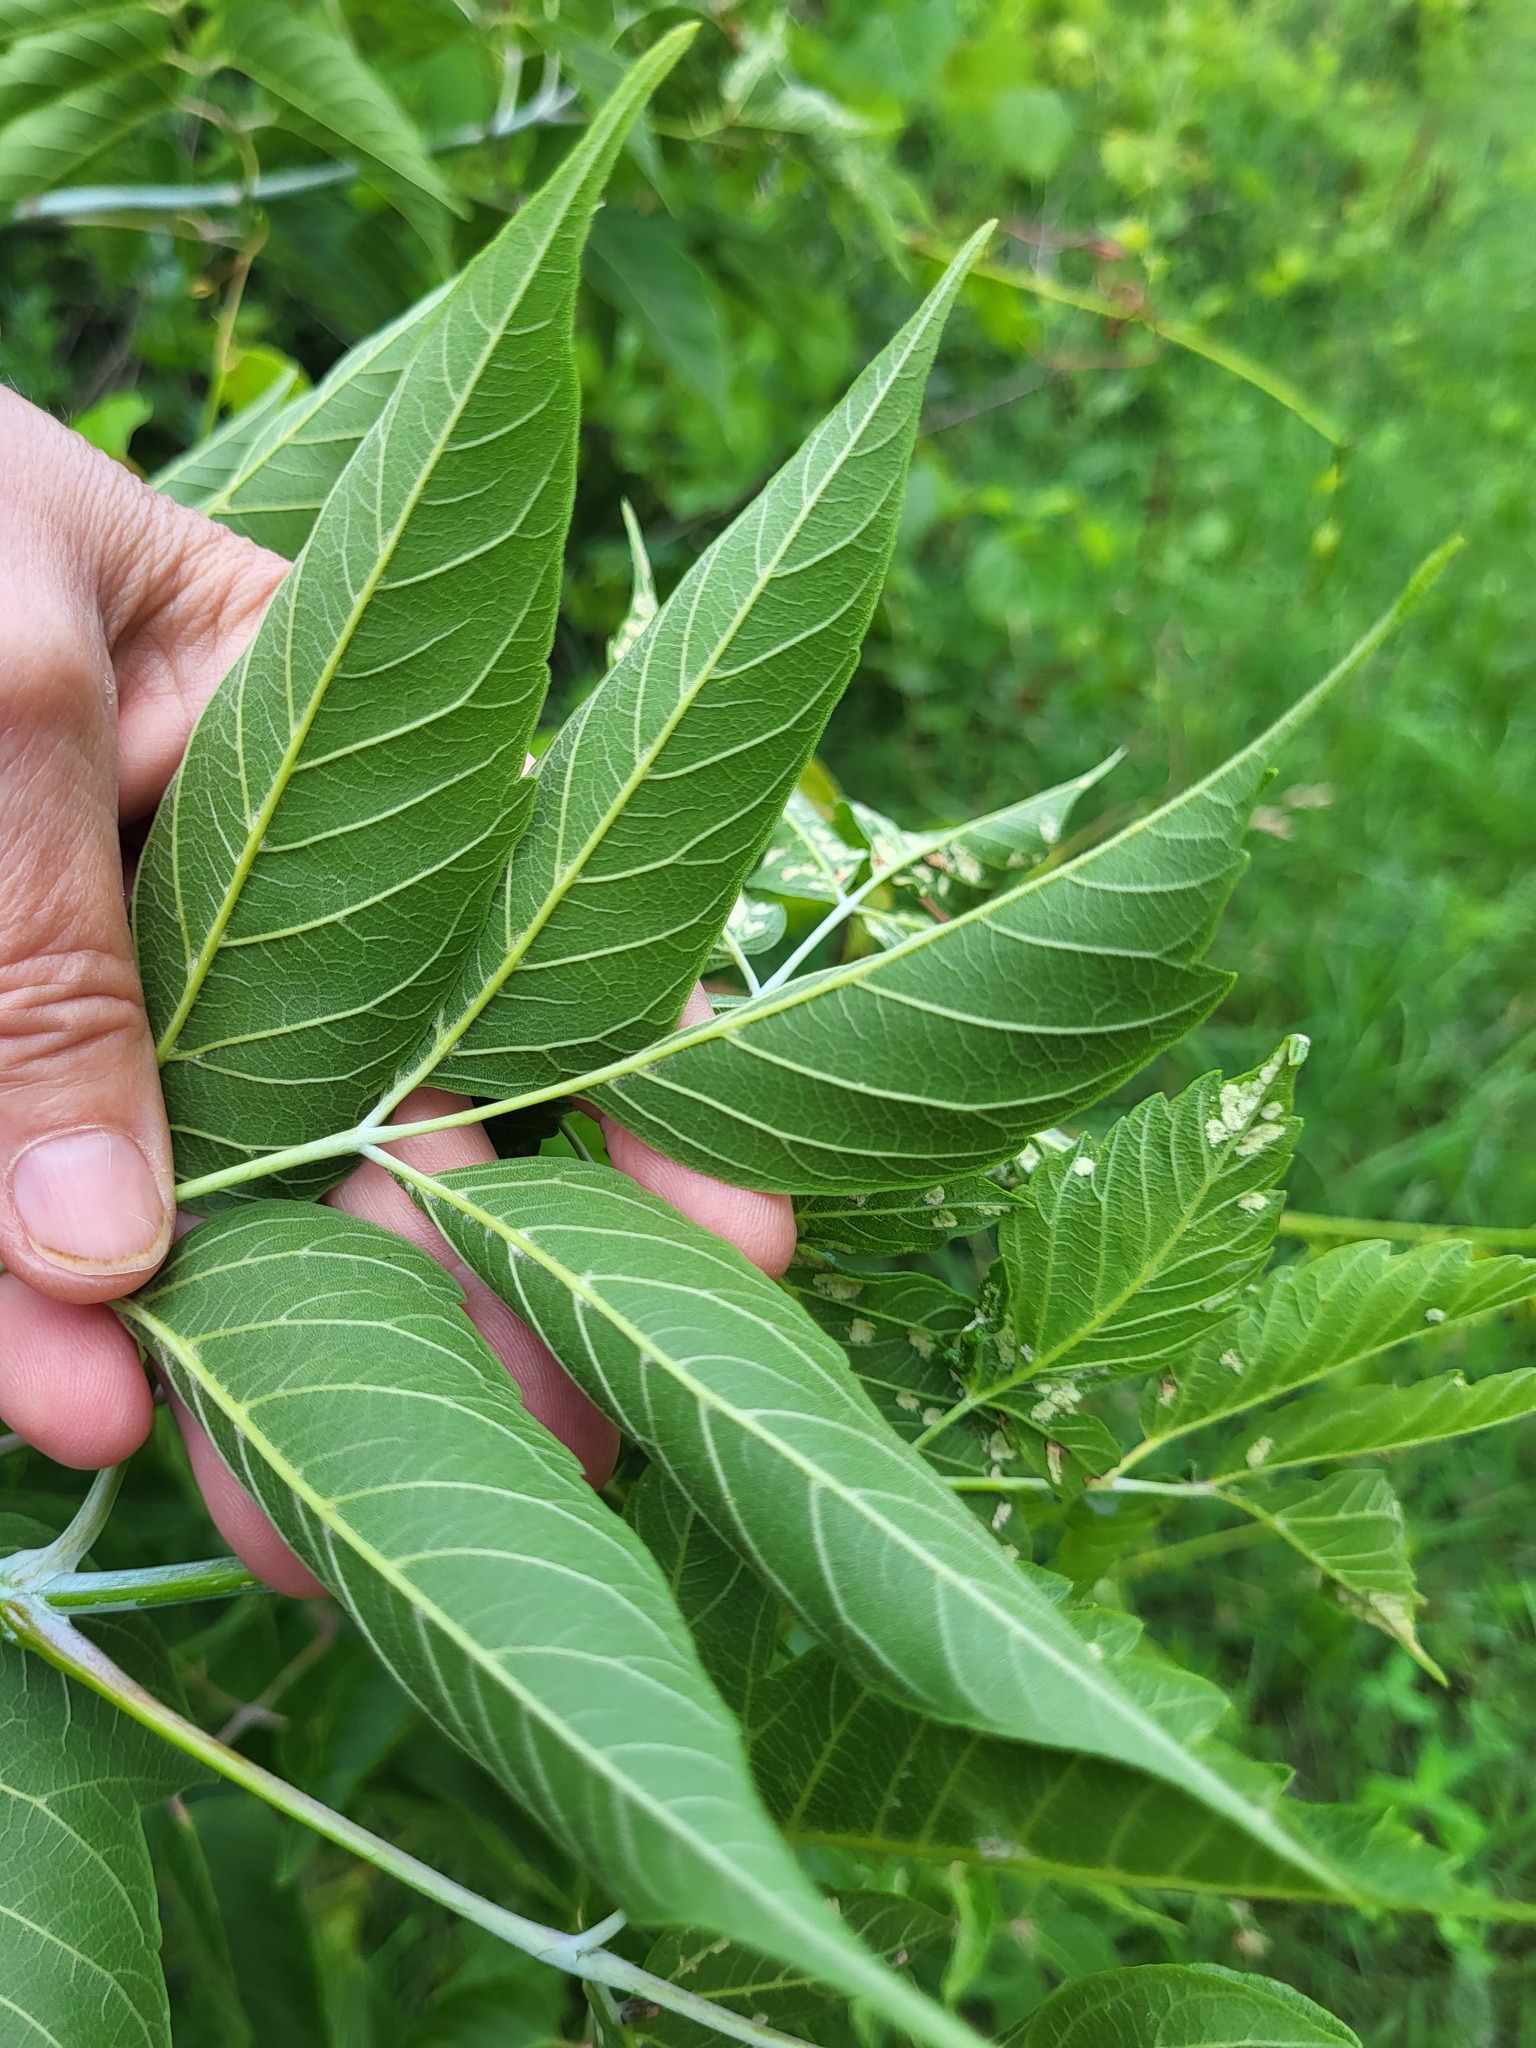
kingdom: Plantae
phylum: Tracheophyta
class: Magnoliopsida
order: Sapindales
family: Sapindaceae
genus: Acer
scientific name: Acer negundo
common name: Ashleaf maple
